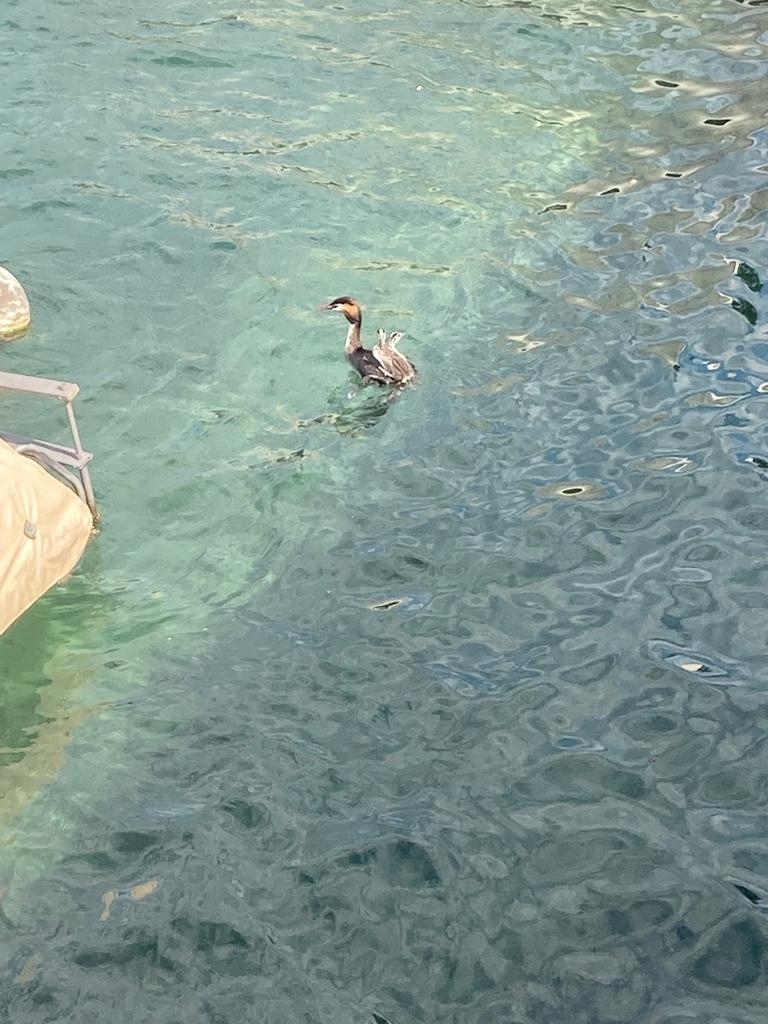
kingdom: Animalia
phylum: Chordata
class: Aves
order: Podicipediformes
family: Podicipedidae
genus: Podiceps
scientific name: Podiceps cristatus
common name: Great crested grebe
